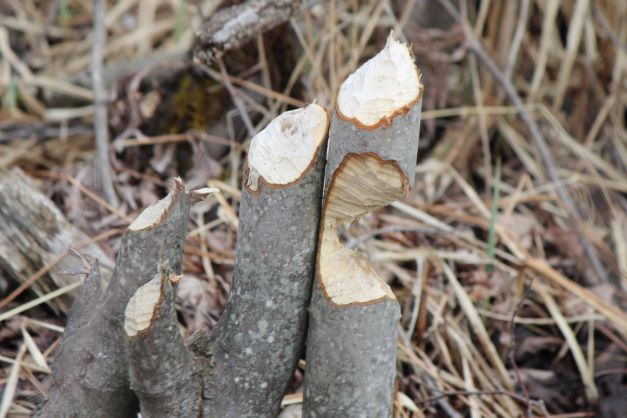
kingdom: Animalia
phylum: Chordata
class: Mammalia
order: Rodentia
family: Castoridae
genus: Castor
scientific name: Castor canadensis
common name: American beaver
